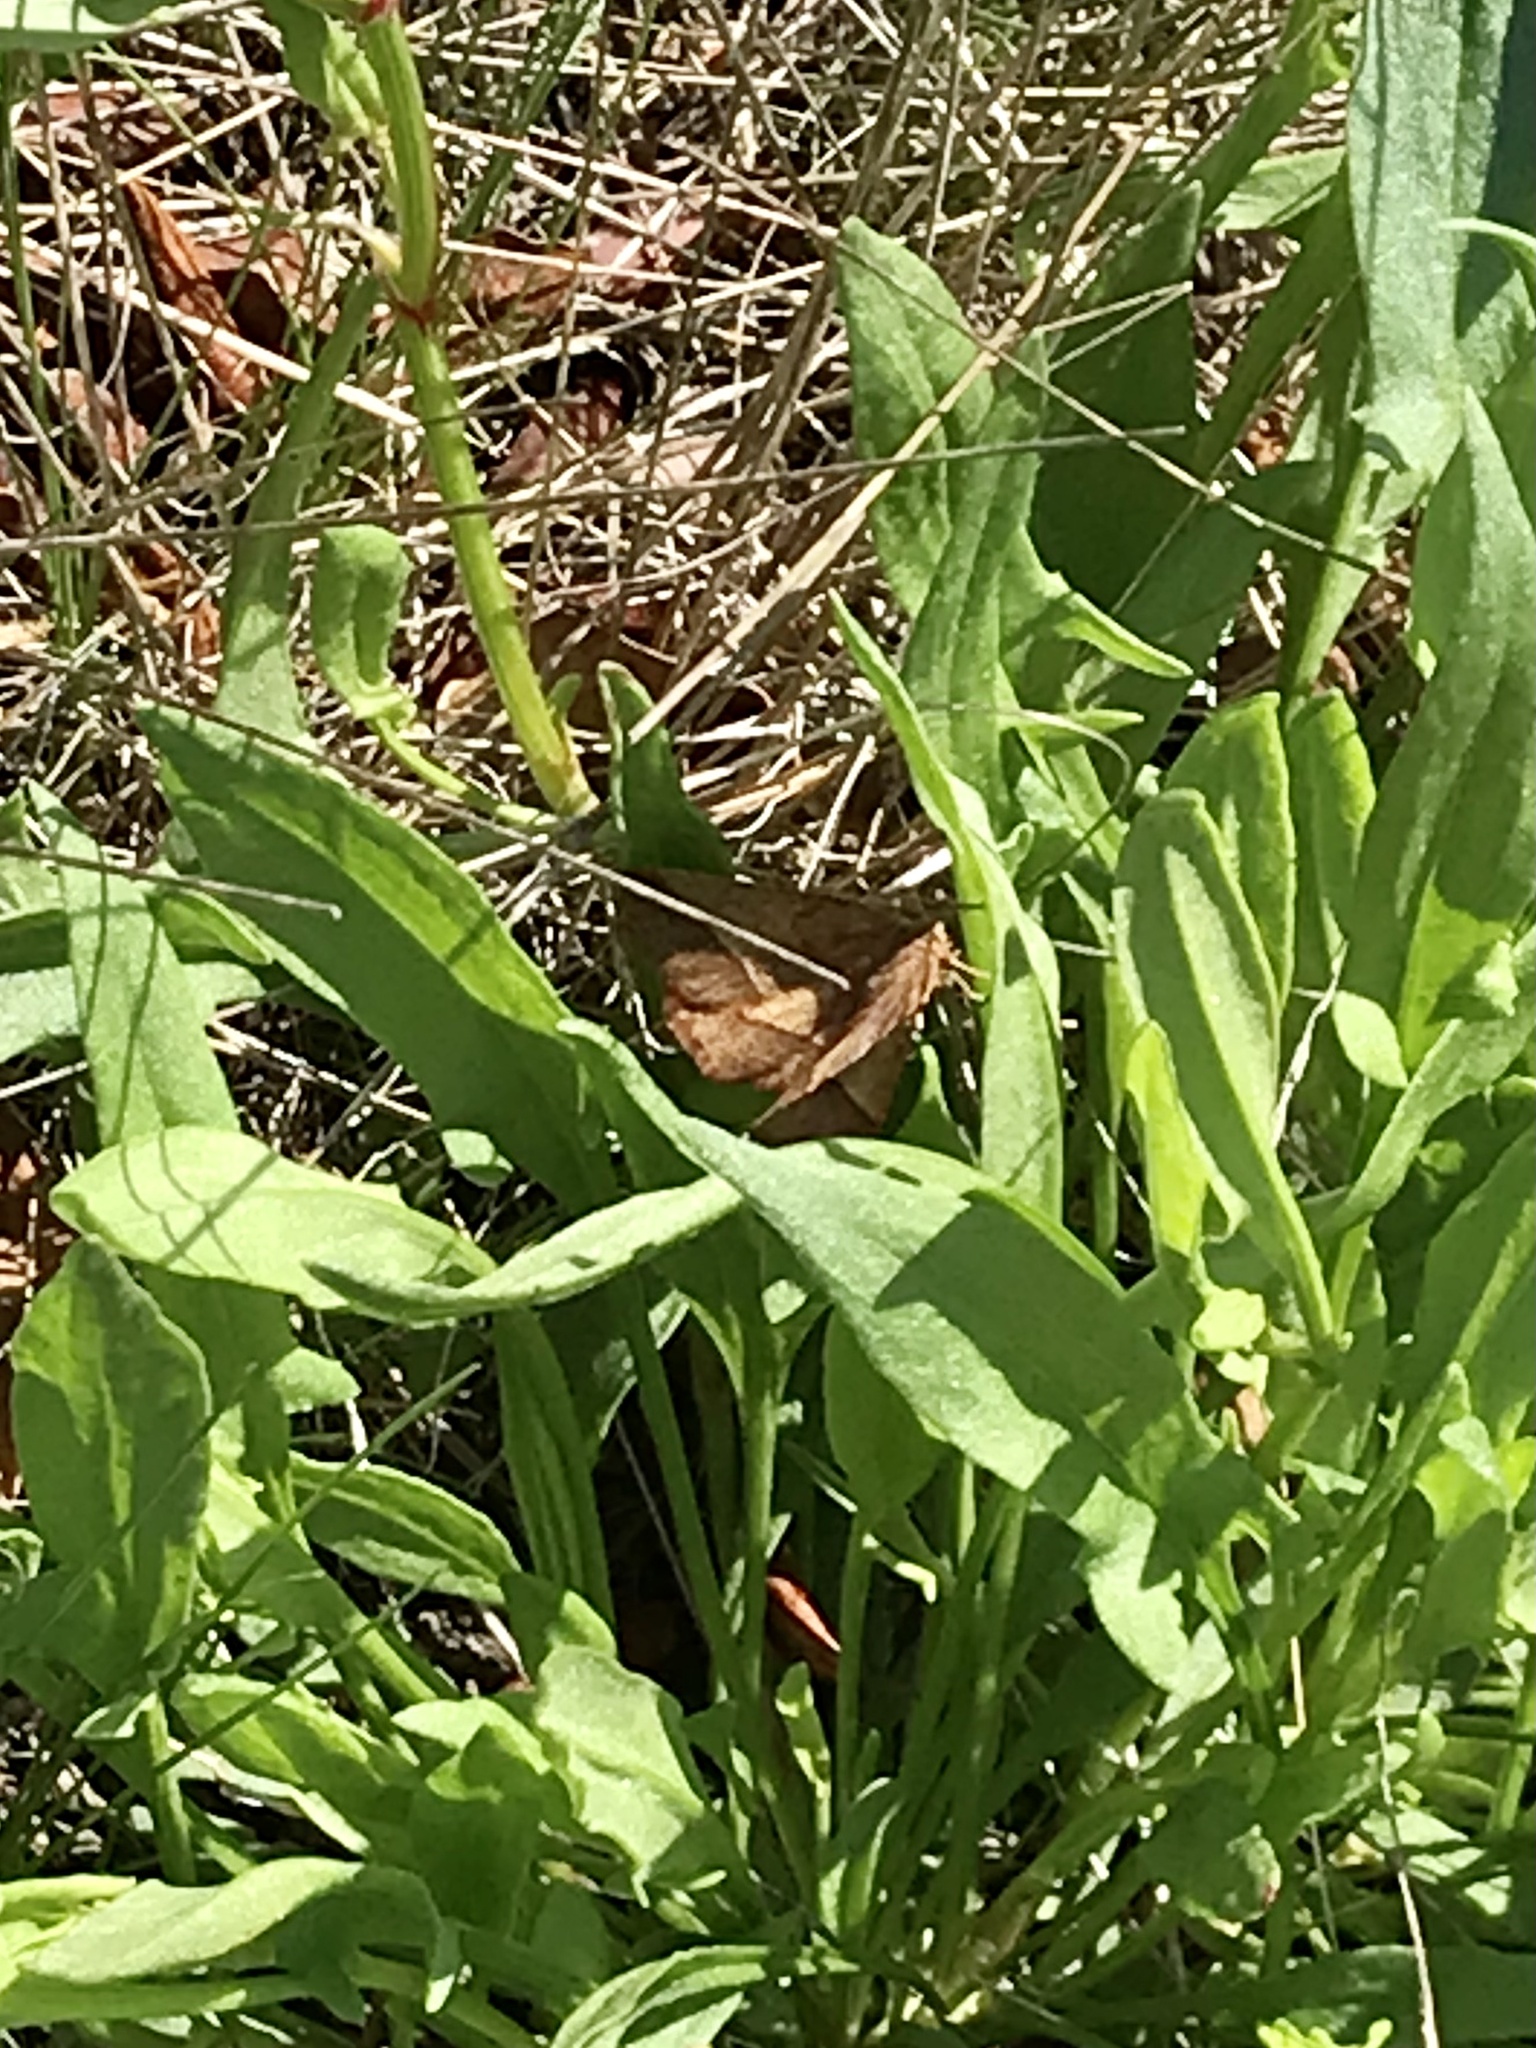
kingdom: Animalia
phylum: Arthropoda
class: Insecta
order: Lepidoptera
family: Geometridae
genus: Metarranthis
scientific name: Metarranthis obfirmaria
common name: Yellow-washed metarranthis
